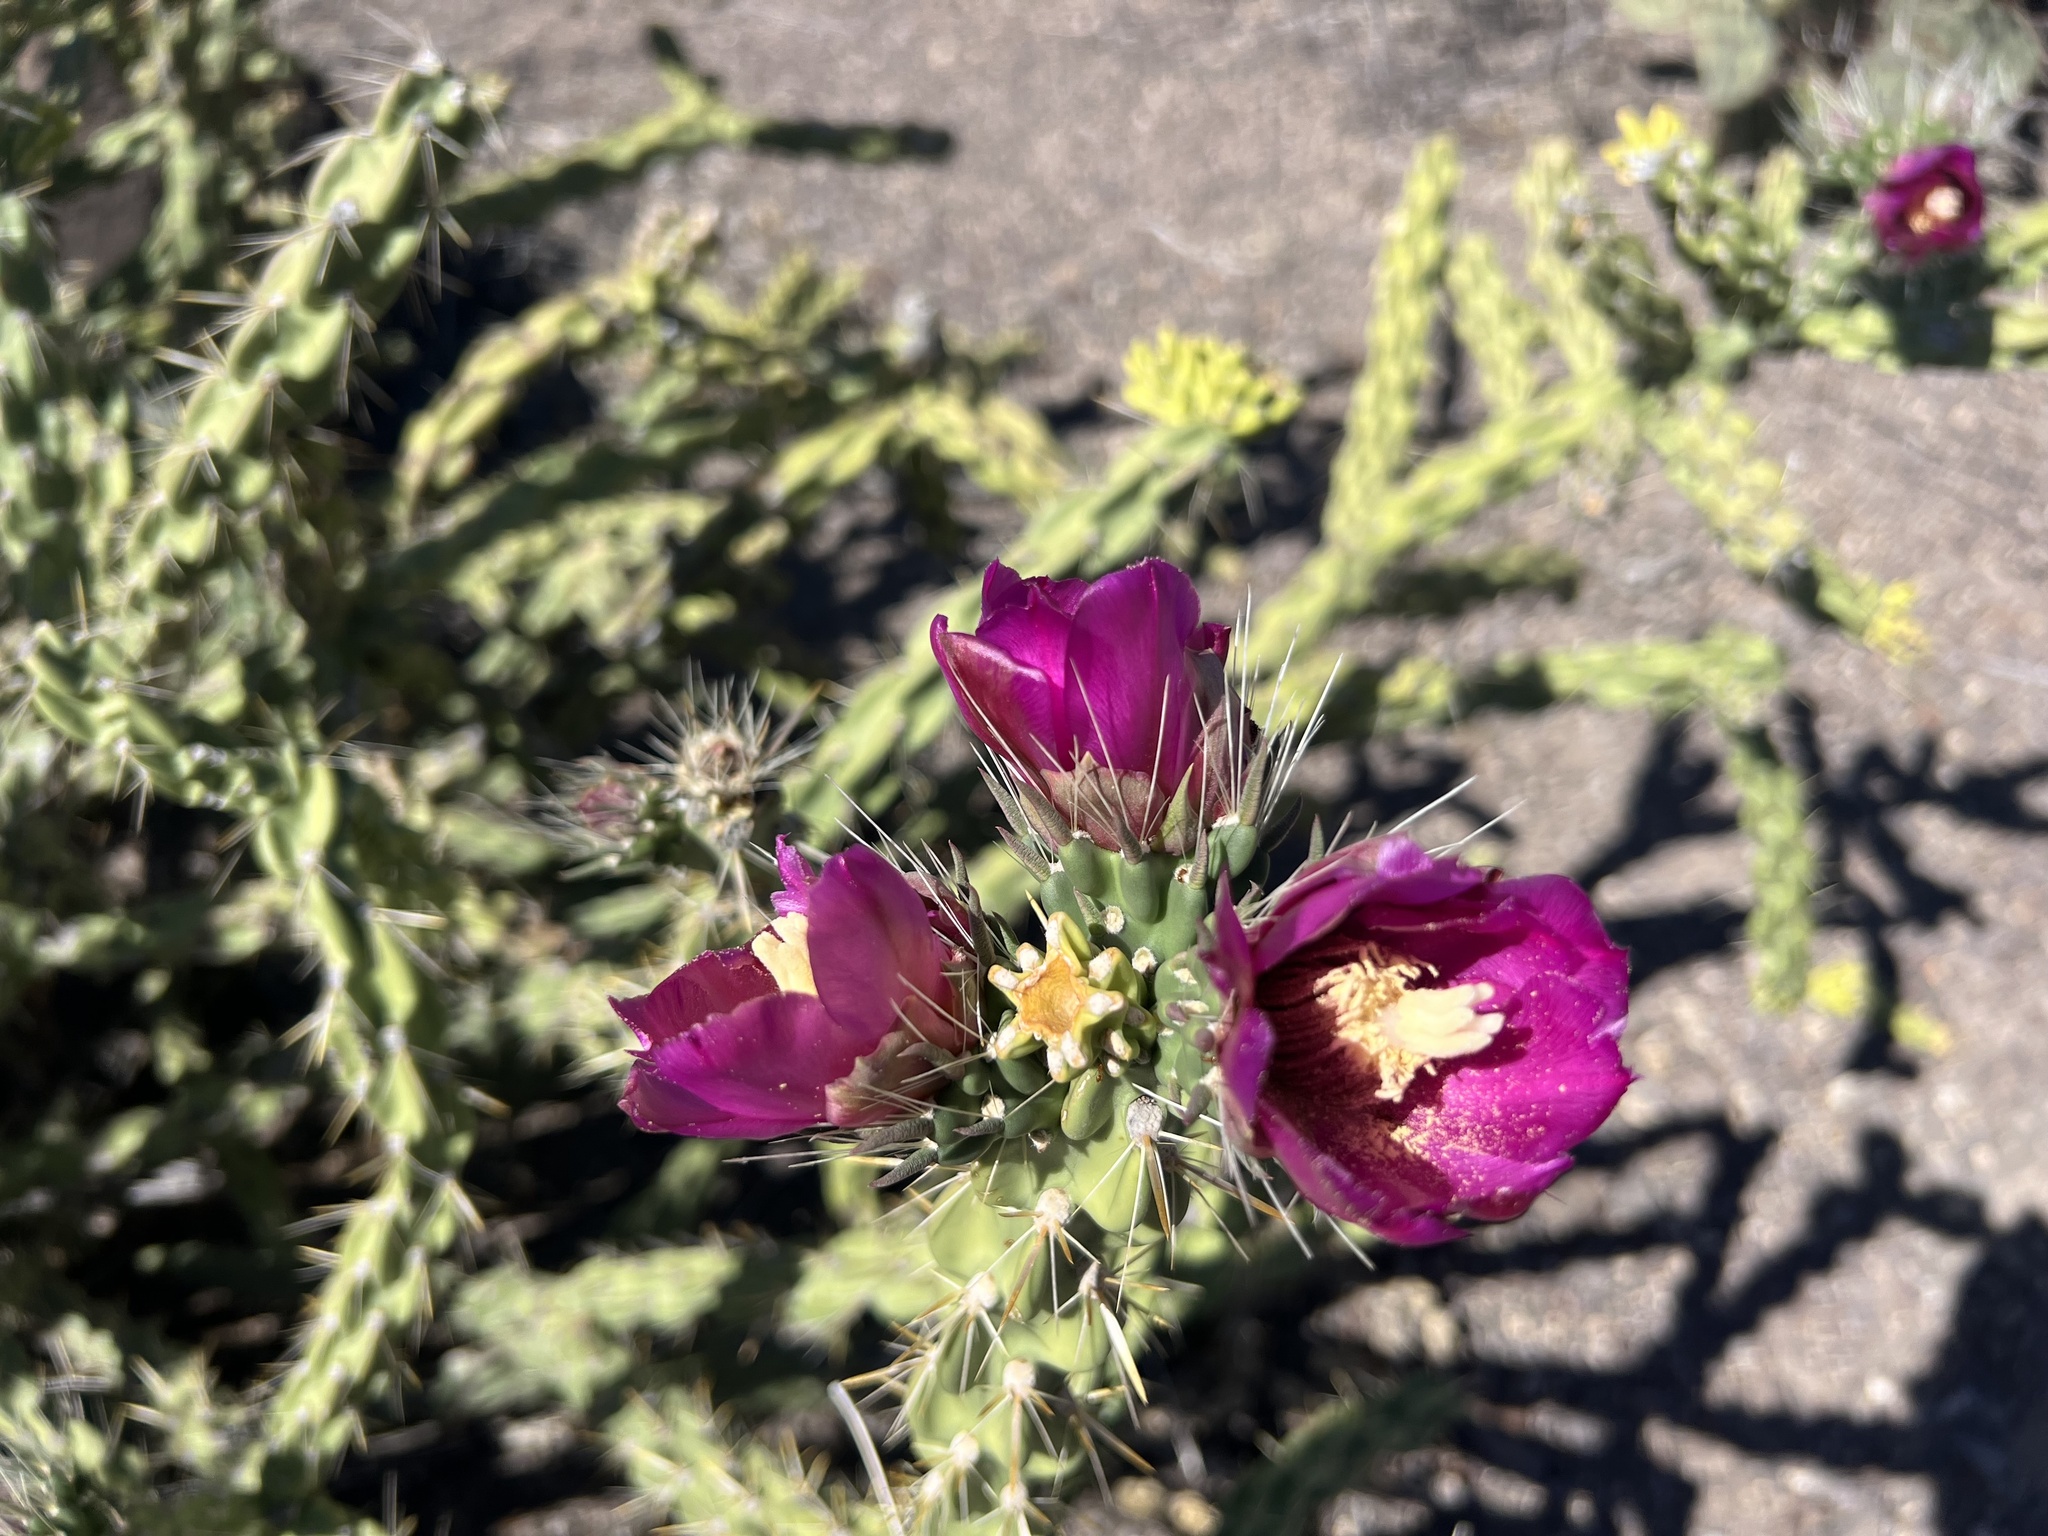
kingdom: Plantae
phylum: Tracheophyta
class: Magnoliopsida
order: Caryophyllales
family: Cactaceae
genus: Cylindropuntia
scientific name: Cylindropuntia imbricata
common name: Candelabrum cactus
